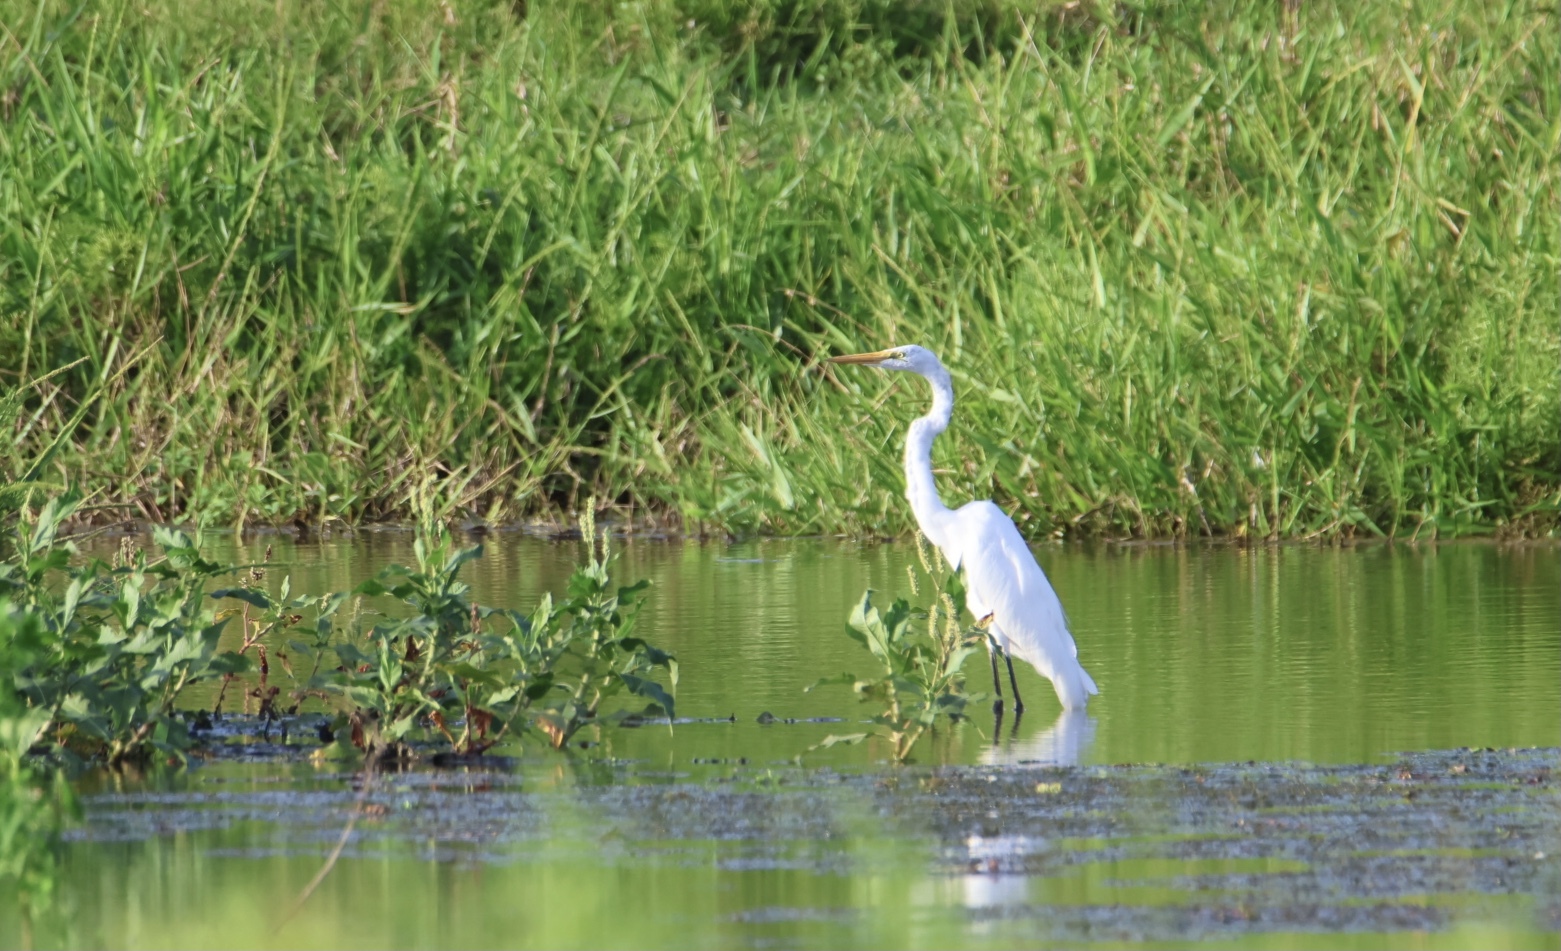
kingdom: Animalia
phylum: Chordata
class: Aves
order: Pelecaniformes
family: Ardeidae
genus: Ardea
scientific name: Ardea alba
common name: Great egret
